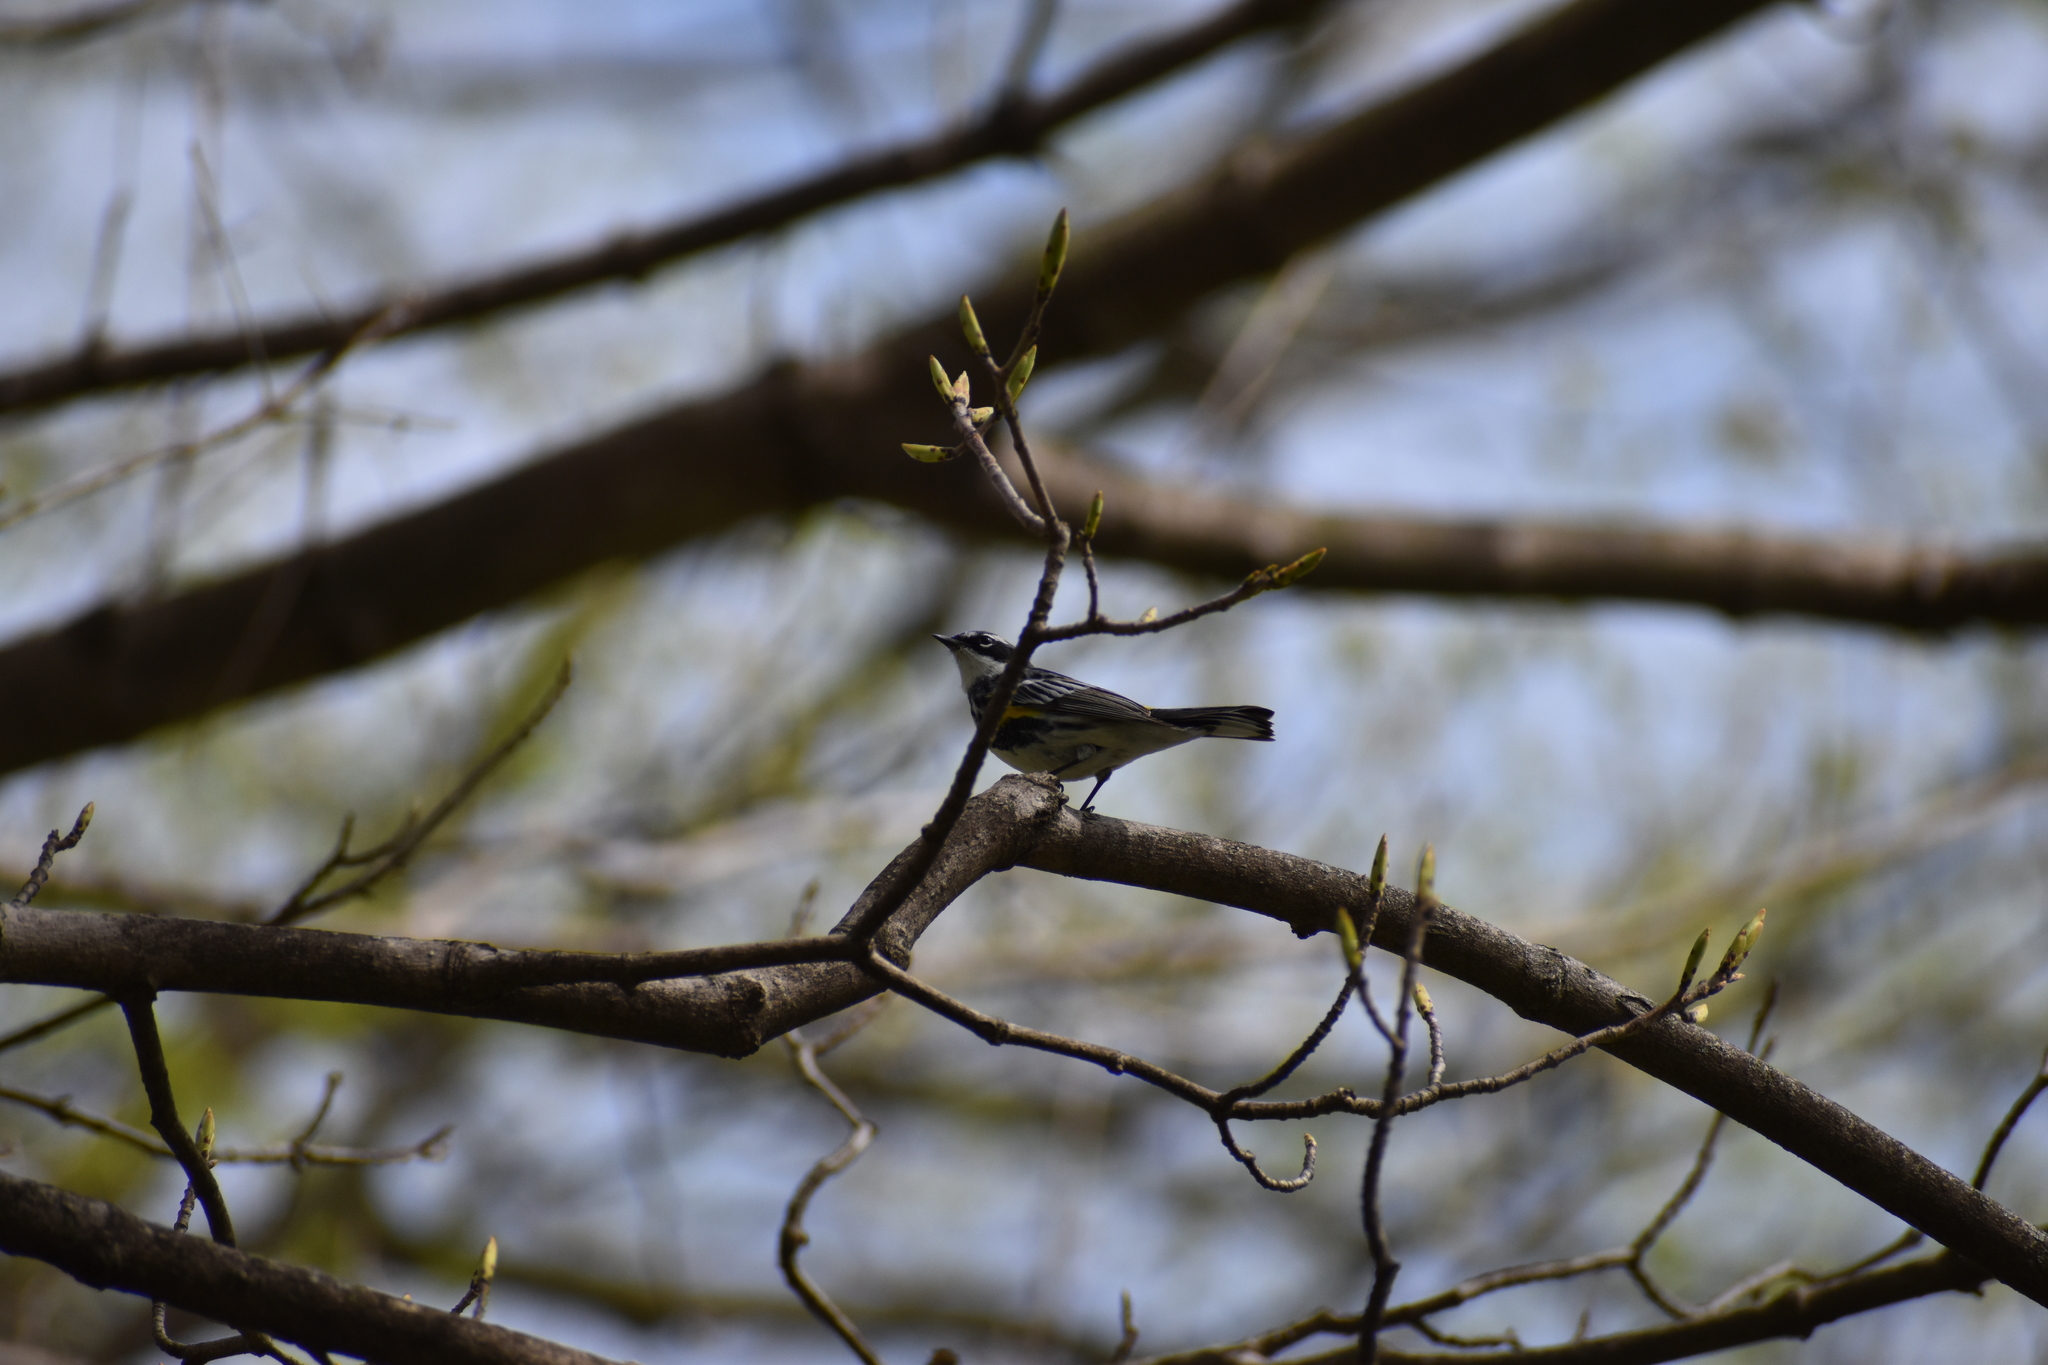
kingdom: Animalia
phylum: Chordata
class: Aves
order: Passeriformes
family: Parulidae
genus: Setophaga
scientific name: Setophaga coronata
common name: Myrtle warbler
